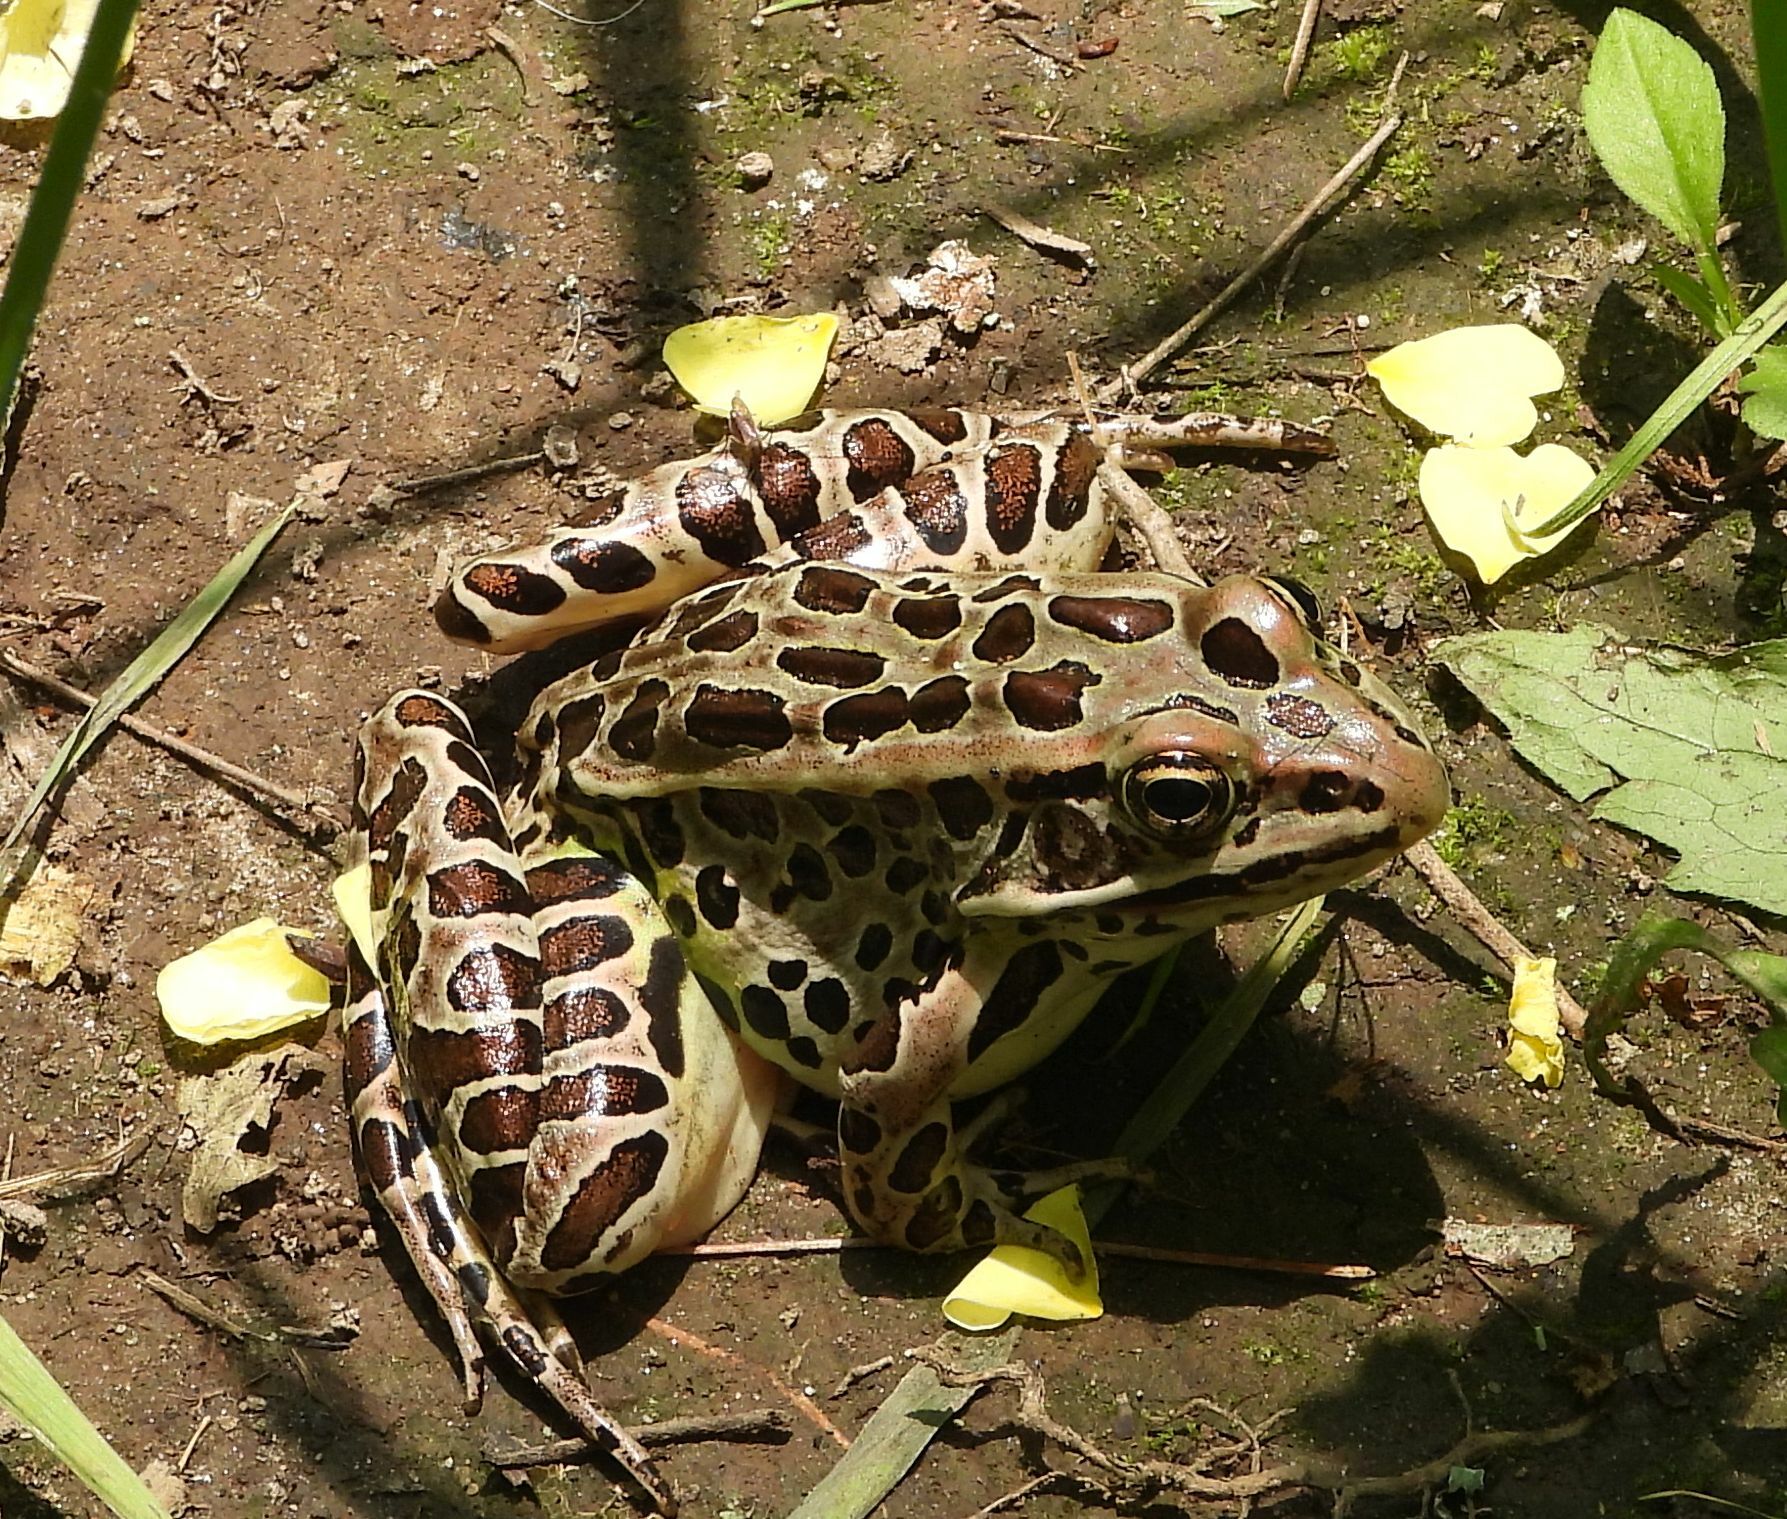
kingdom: Animalia
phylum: Chordata
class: Amphibia
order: Anura
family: Ranidae
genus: Lithobates
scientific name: Lithobates pipiens
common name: Northern leopard frog
